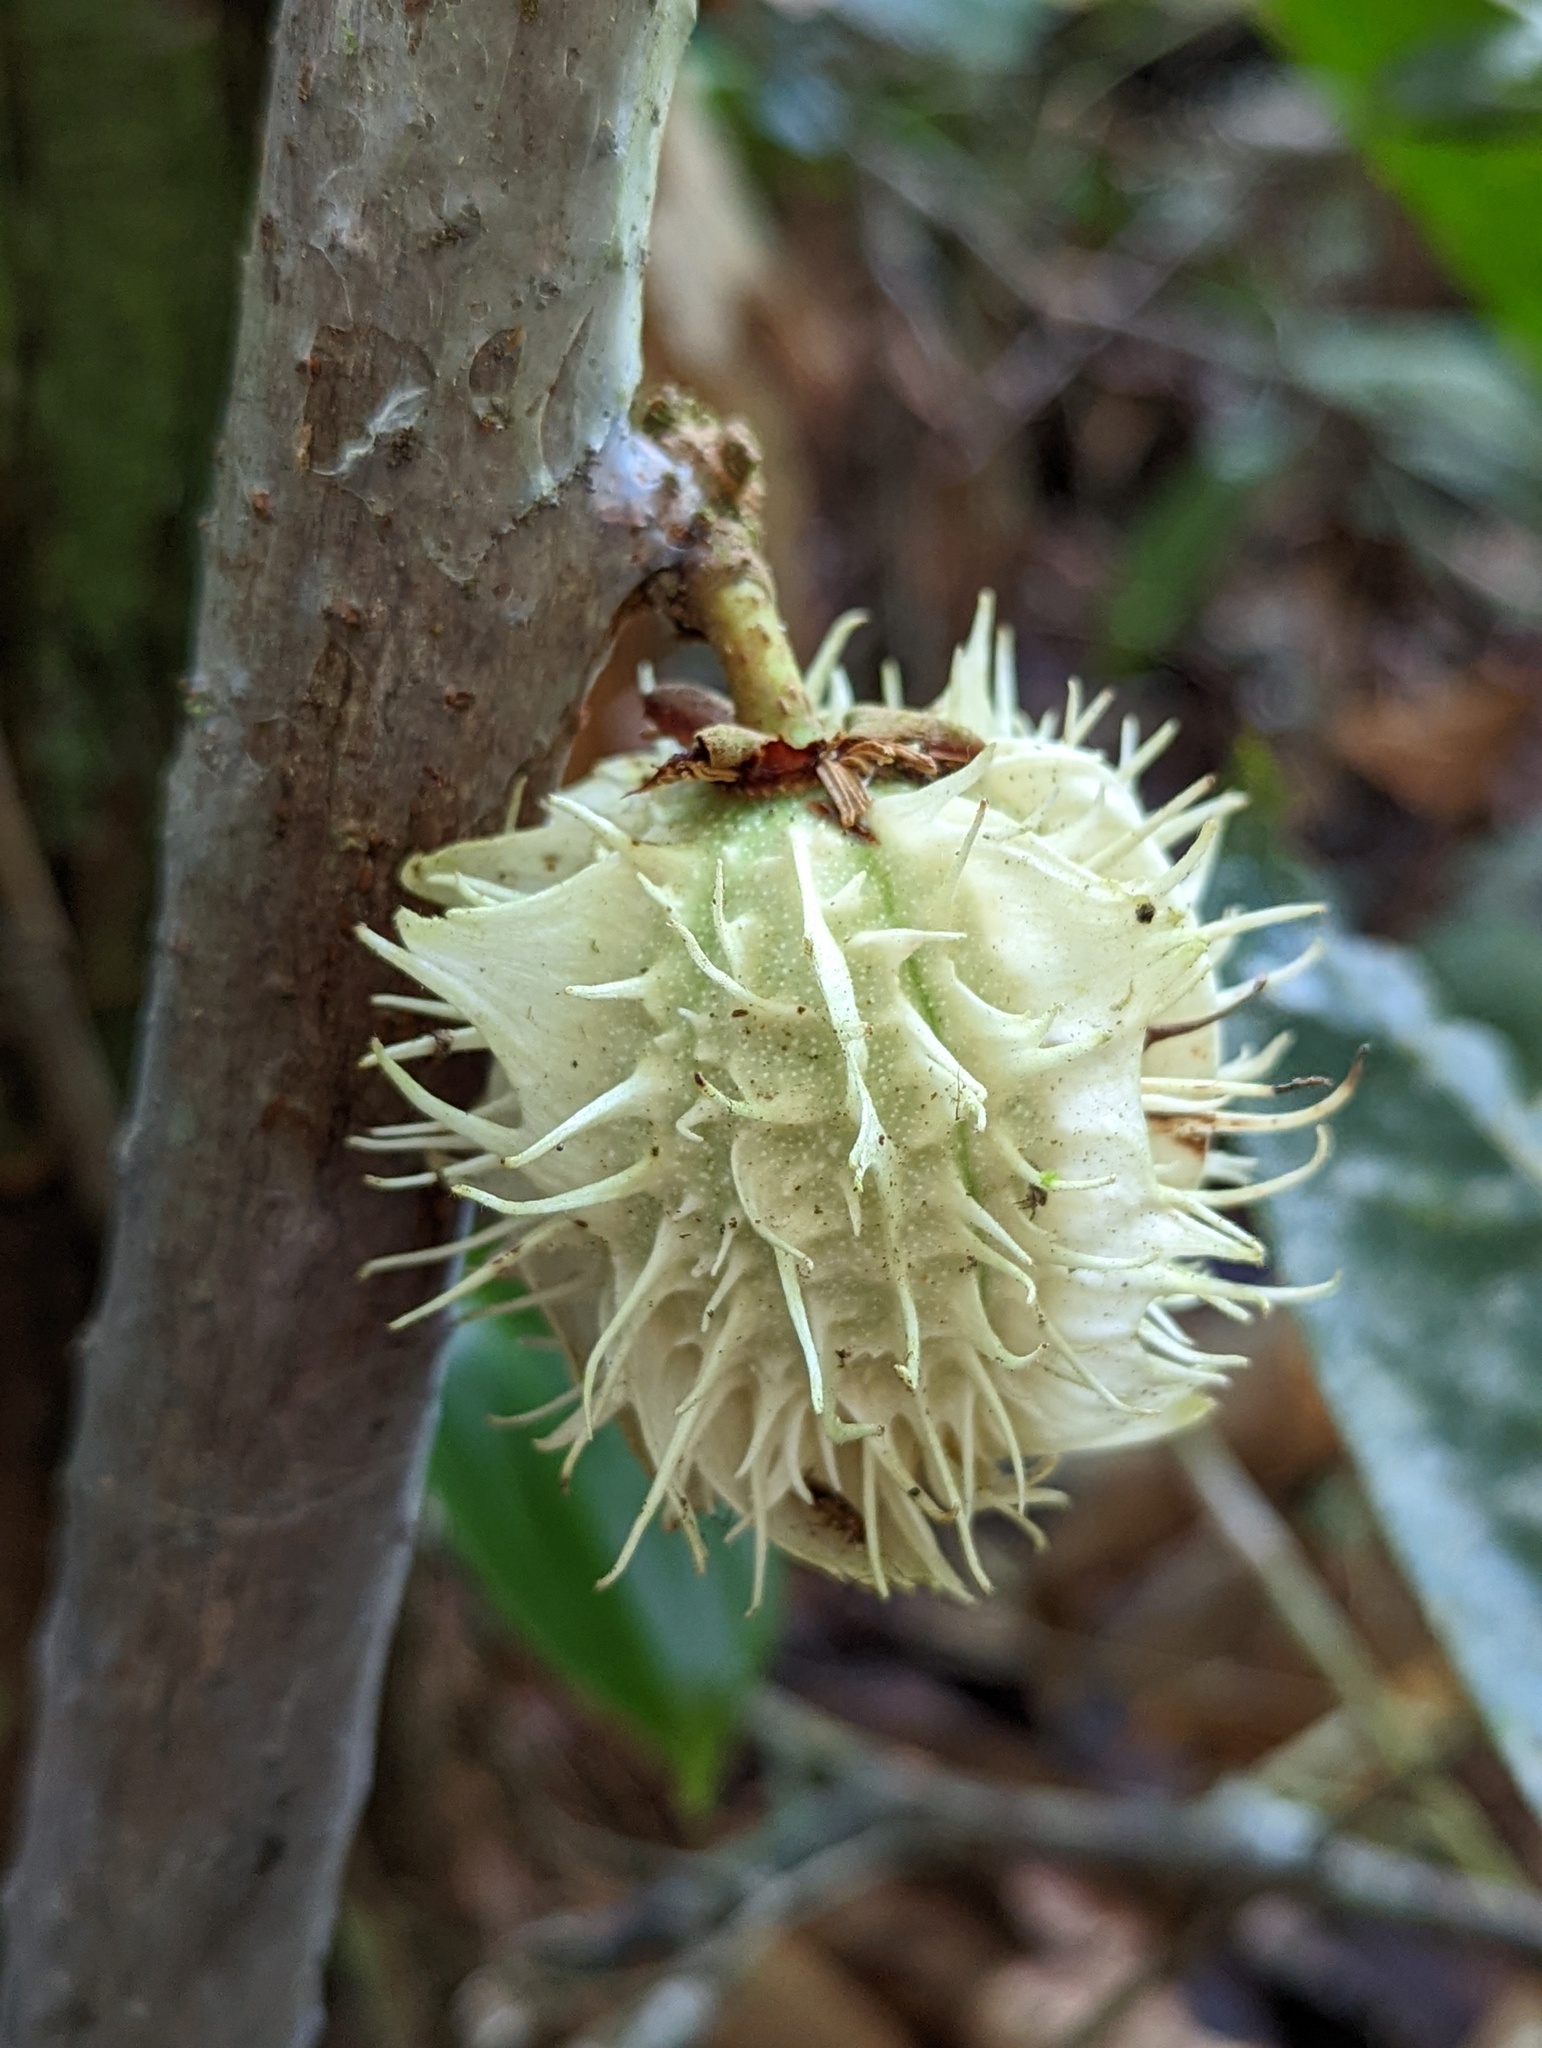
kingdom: Plantae
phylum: Tracheophyta
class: Magnoliopsida
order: Malpighiales
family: Achariaceae
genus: Carpotroche
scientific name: Carpotroche longifolia
